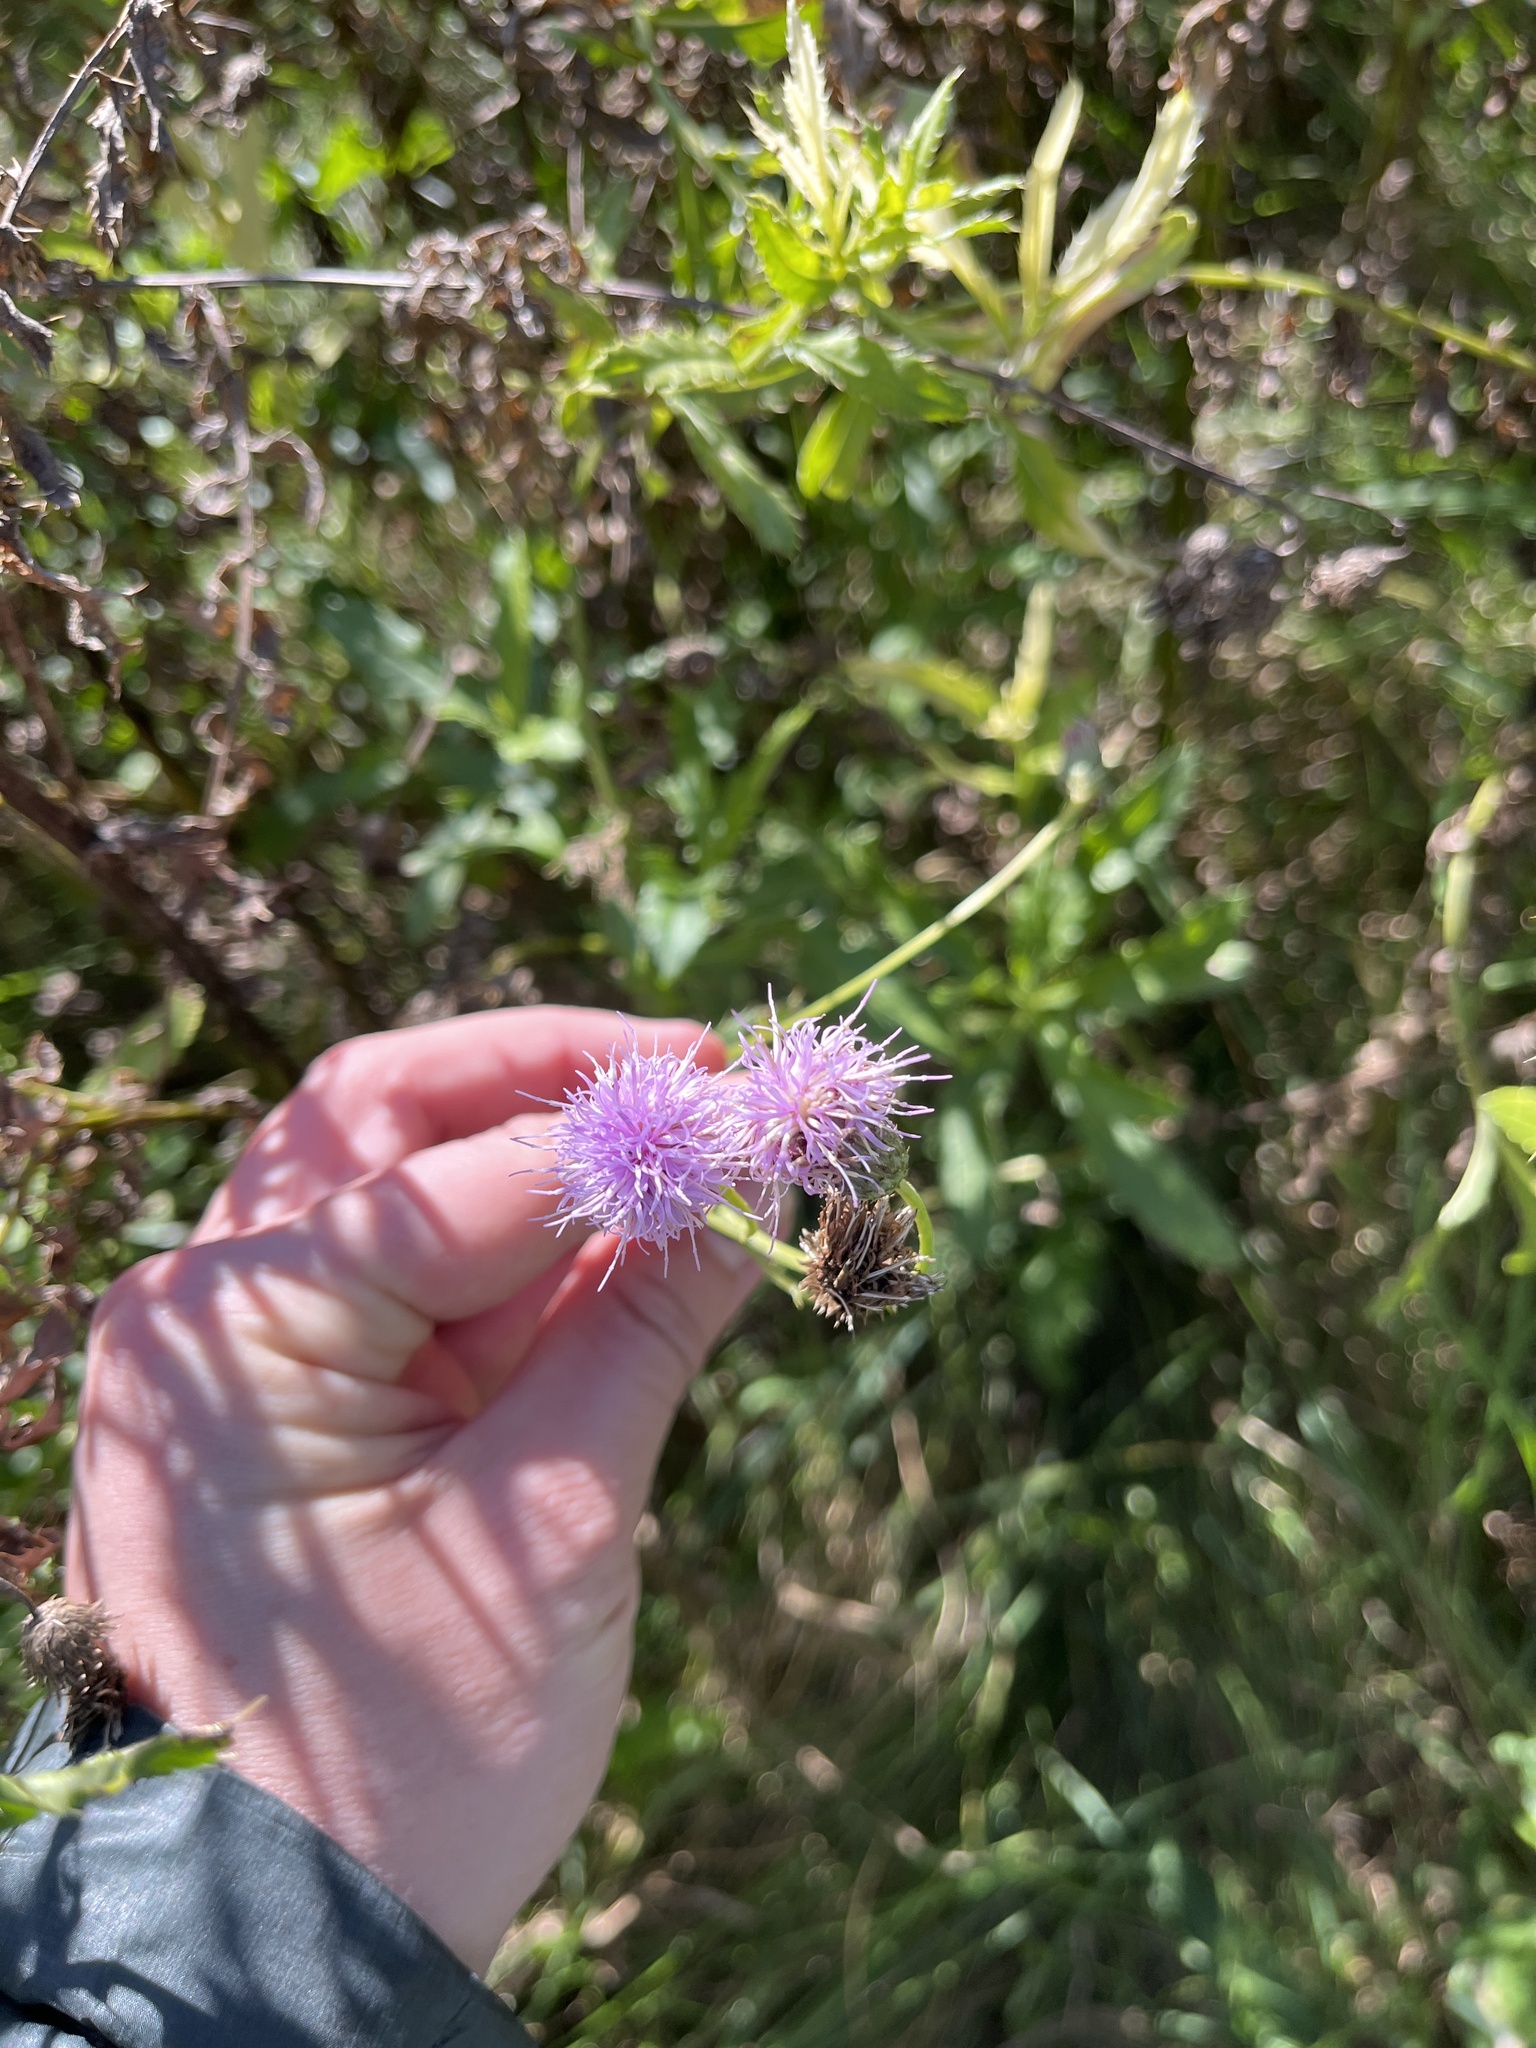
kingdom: Plantae
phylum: Tracheophyta
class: Magnoliopsida
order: Asterales
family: Asteraceae
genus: Cirsium
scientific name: Cirsium arvense
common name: Creeping thistle
